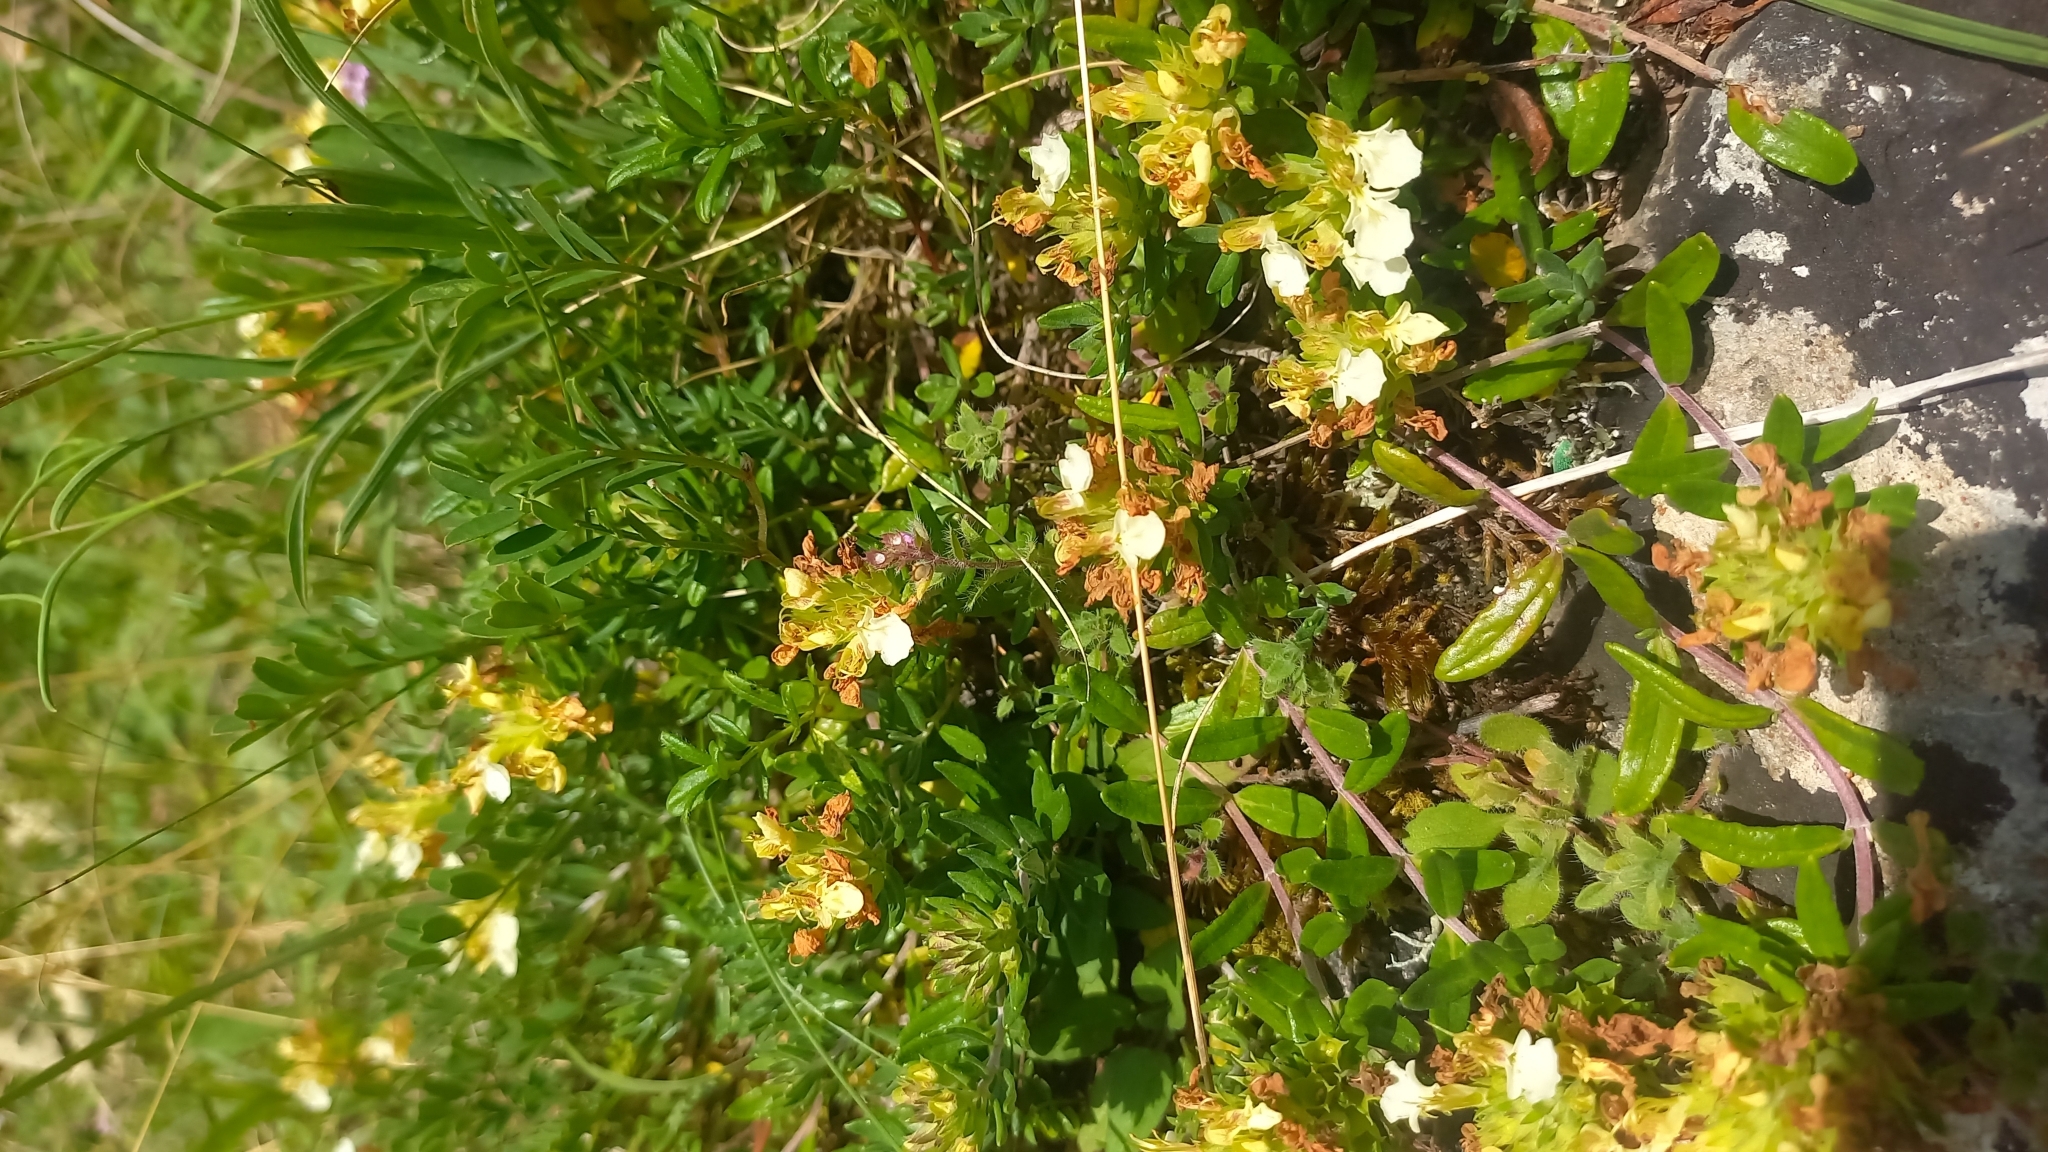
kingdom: Plantae
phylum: Tracheophyta
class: Magnoliopsida
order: Lamiales
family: Lamiaceae
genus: Teucrium
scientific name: Teucrium montanum
